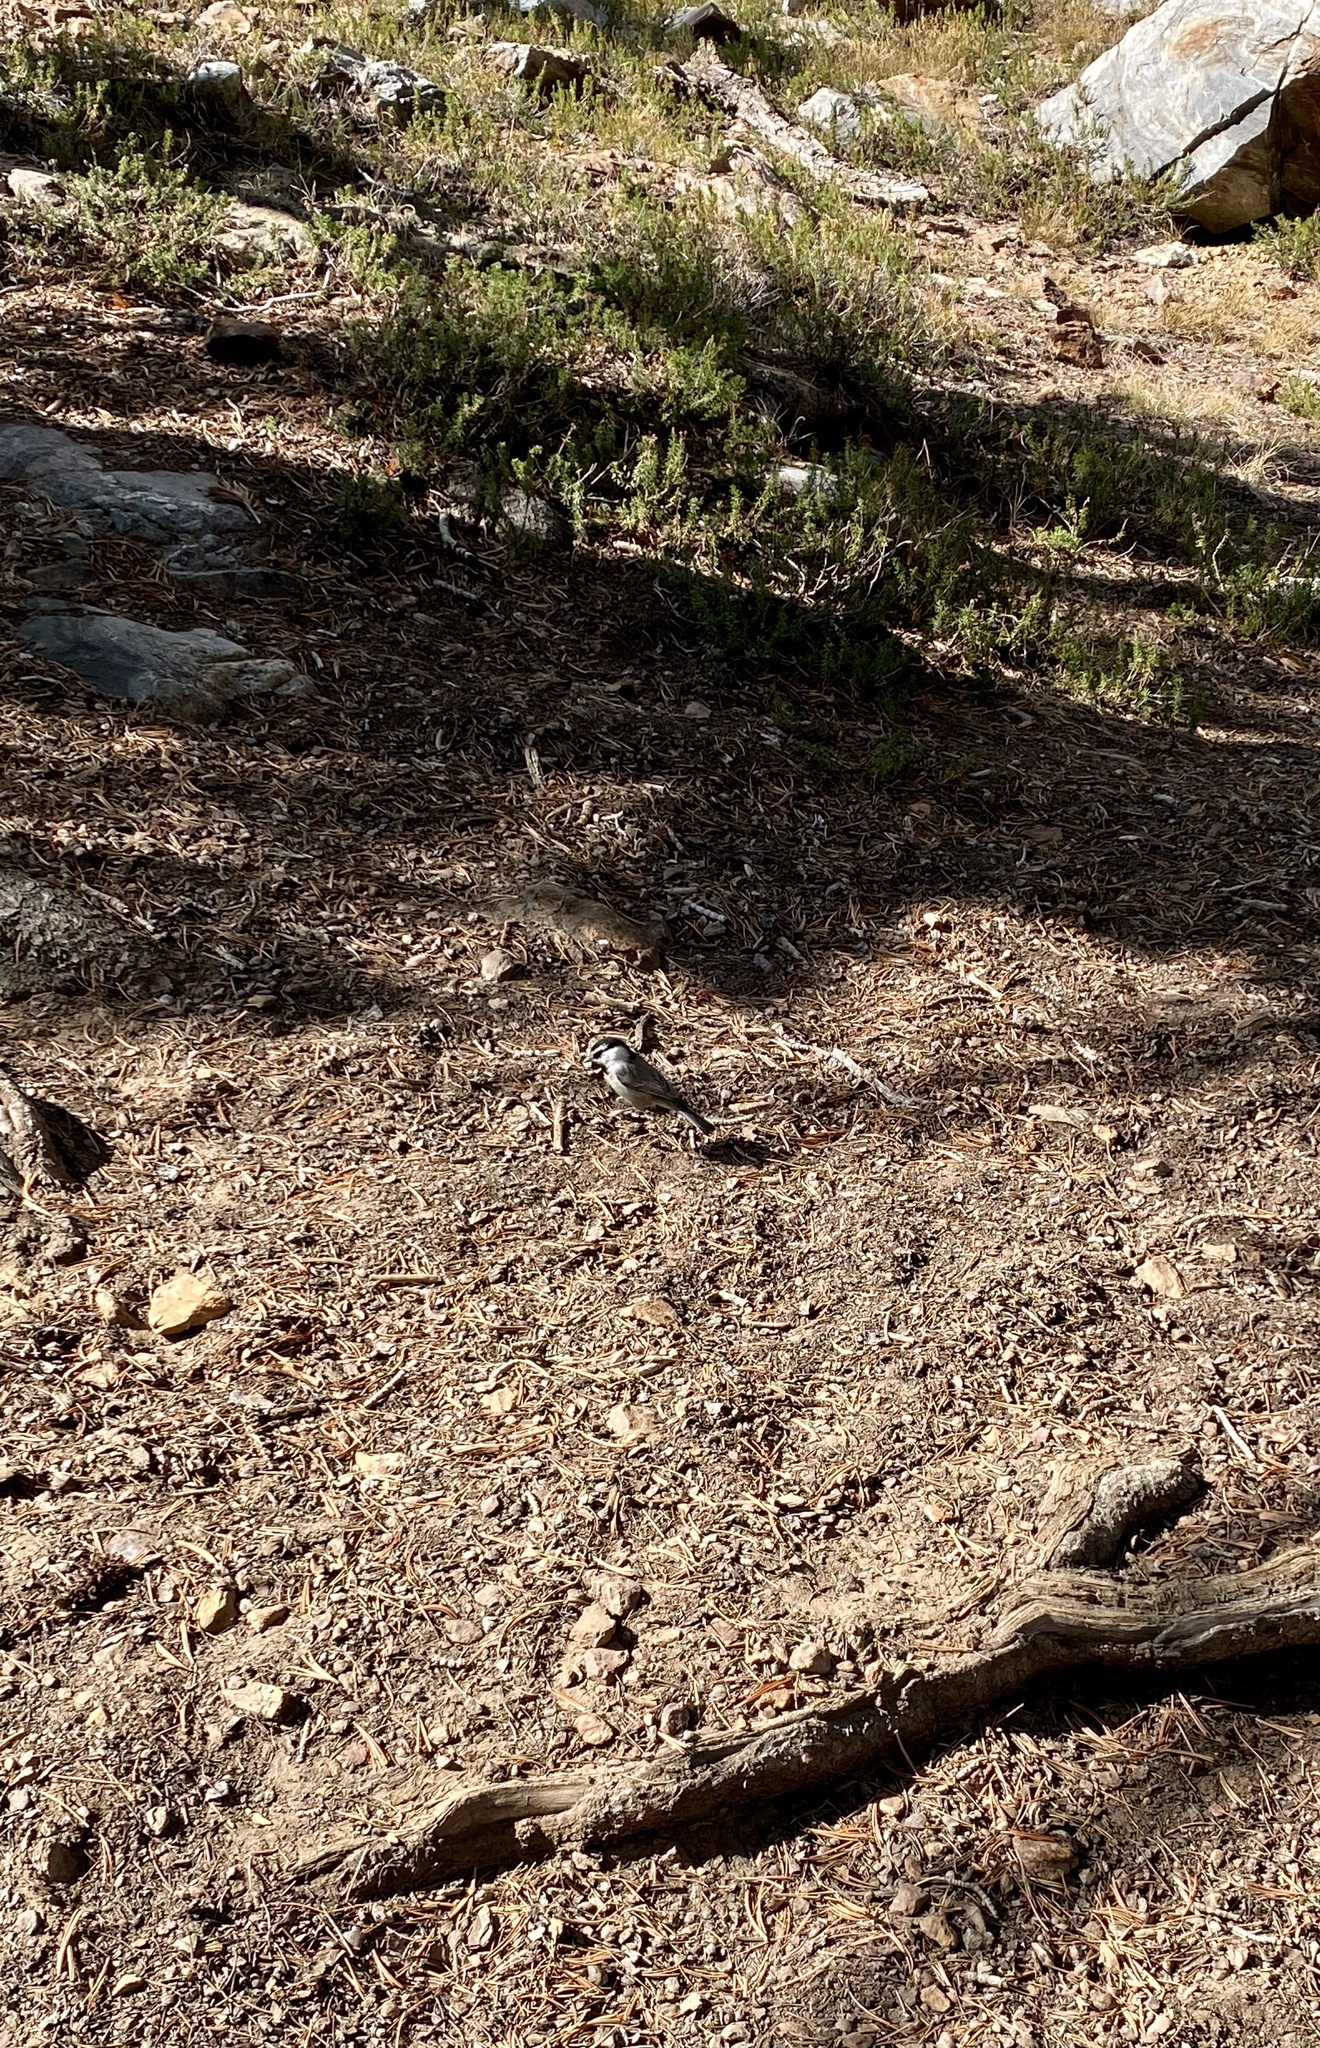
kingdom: Animalia
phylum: Chordata
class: Aves
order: Passeriformes
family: Paridae
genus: Poecile
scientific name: Poecile gambeli
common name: Mountain chickadee
